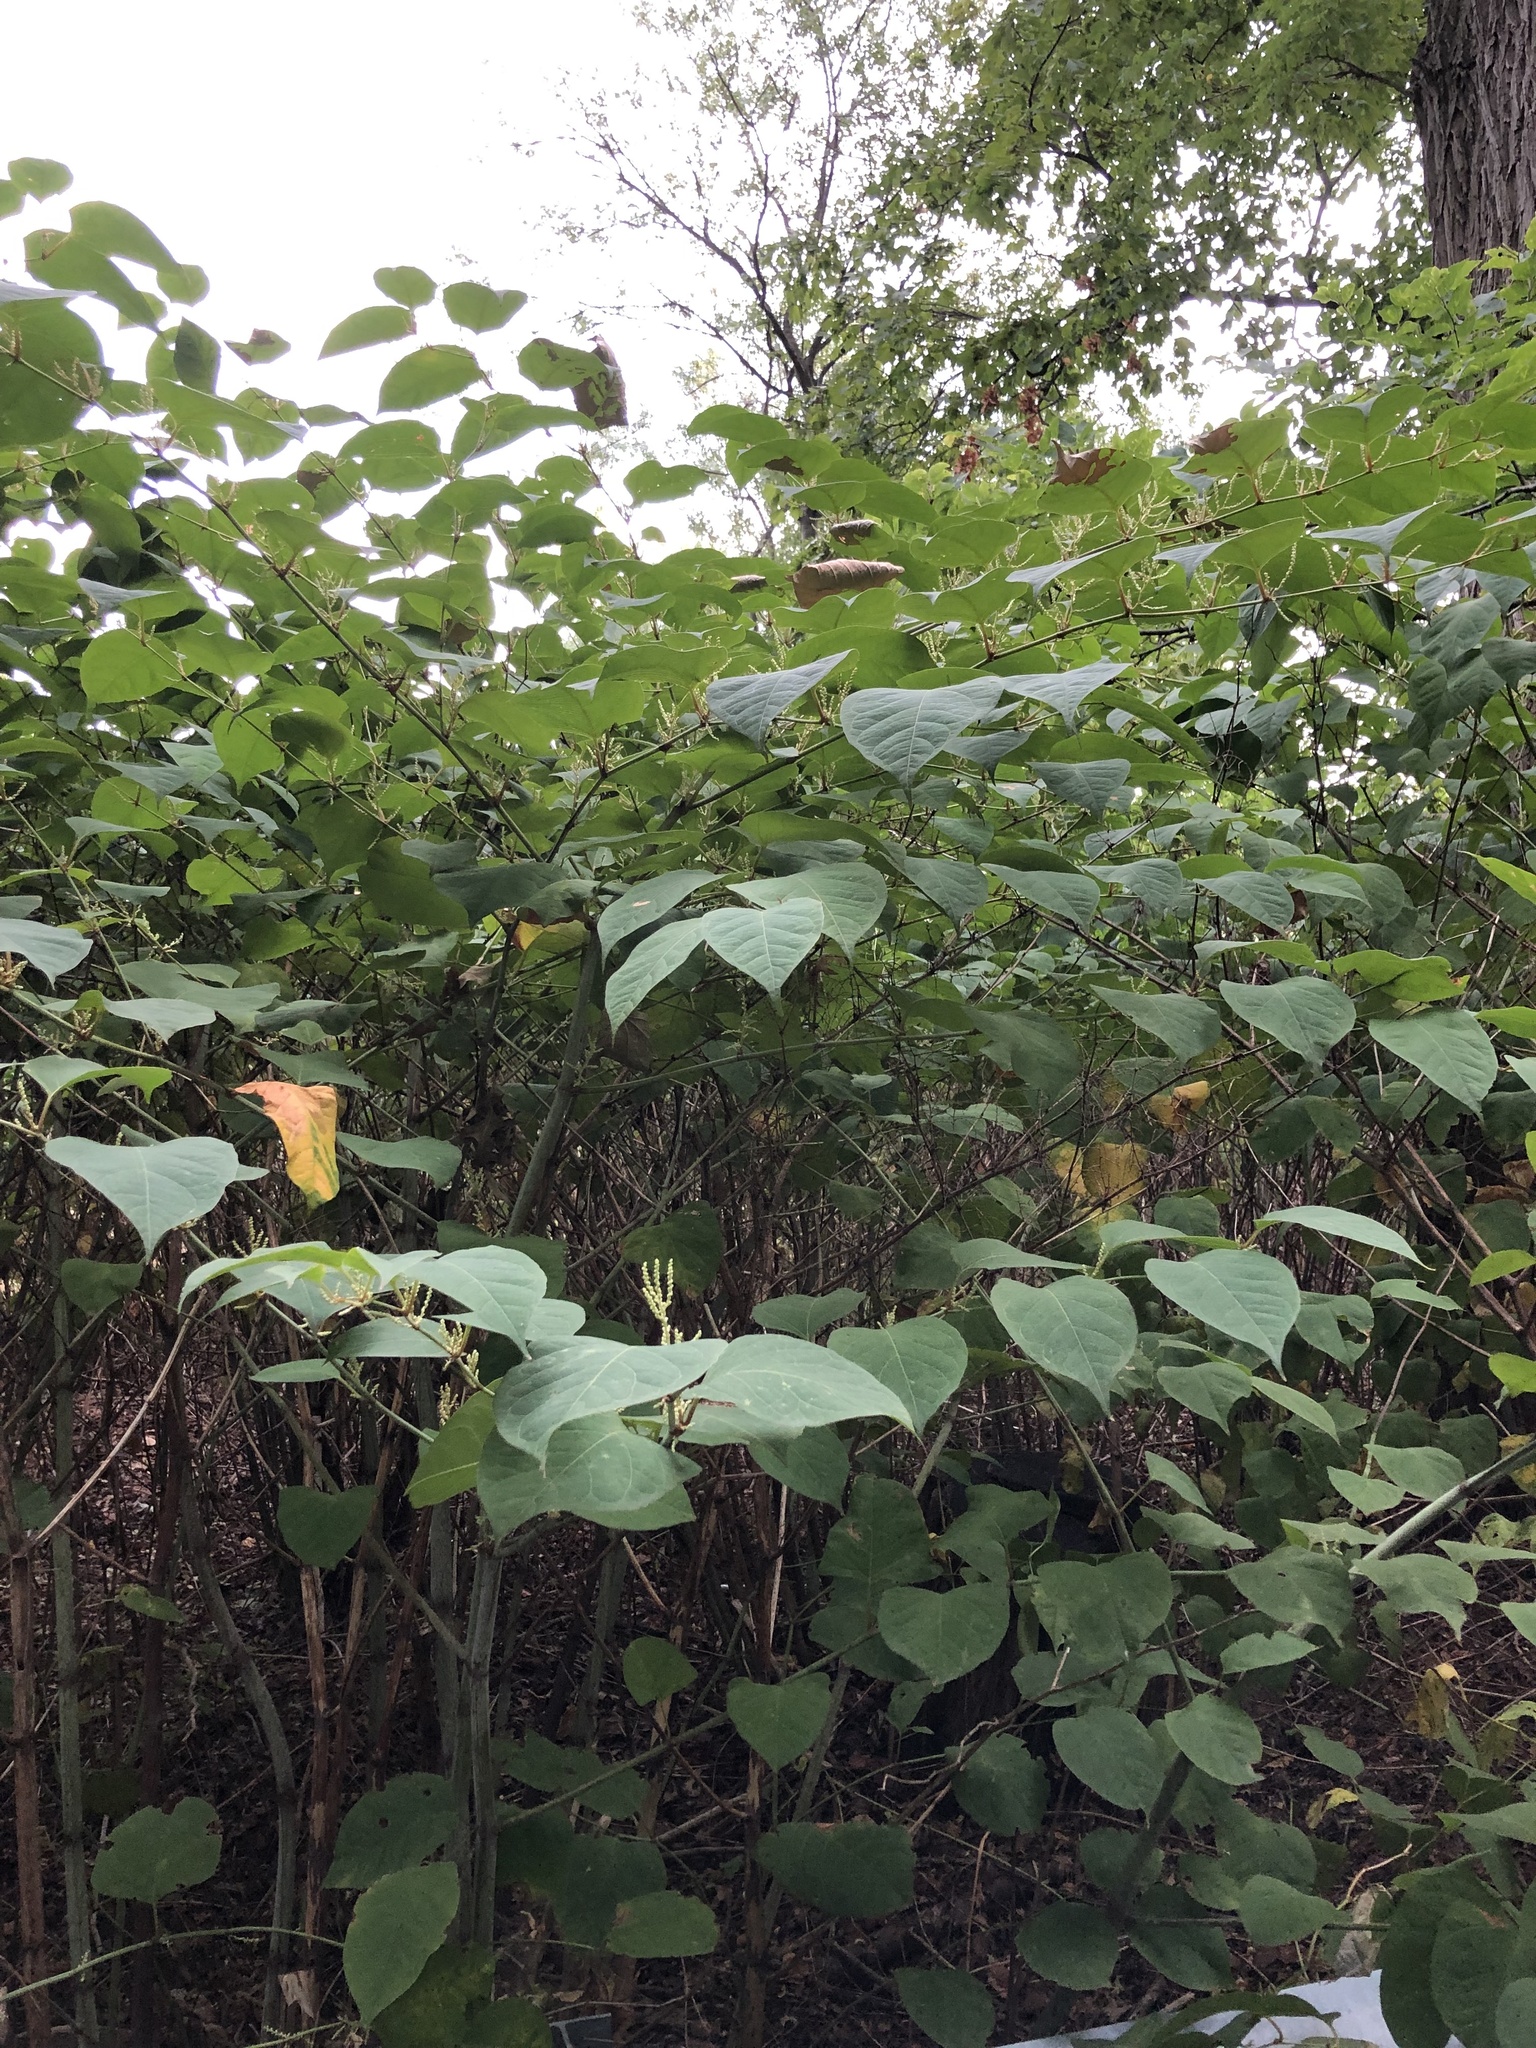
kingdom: Plantae
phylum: Tracheophyta
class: Magnoliopsida
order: Caryophyllales
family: Polygonaceae
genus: Reynoutria
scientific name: Reynoutria japonica
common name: Japanese knotweed
